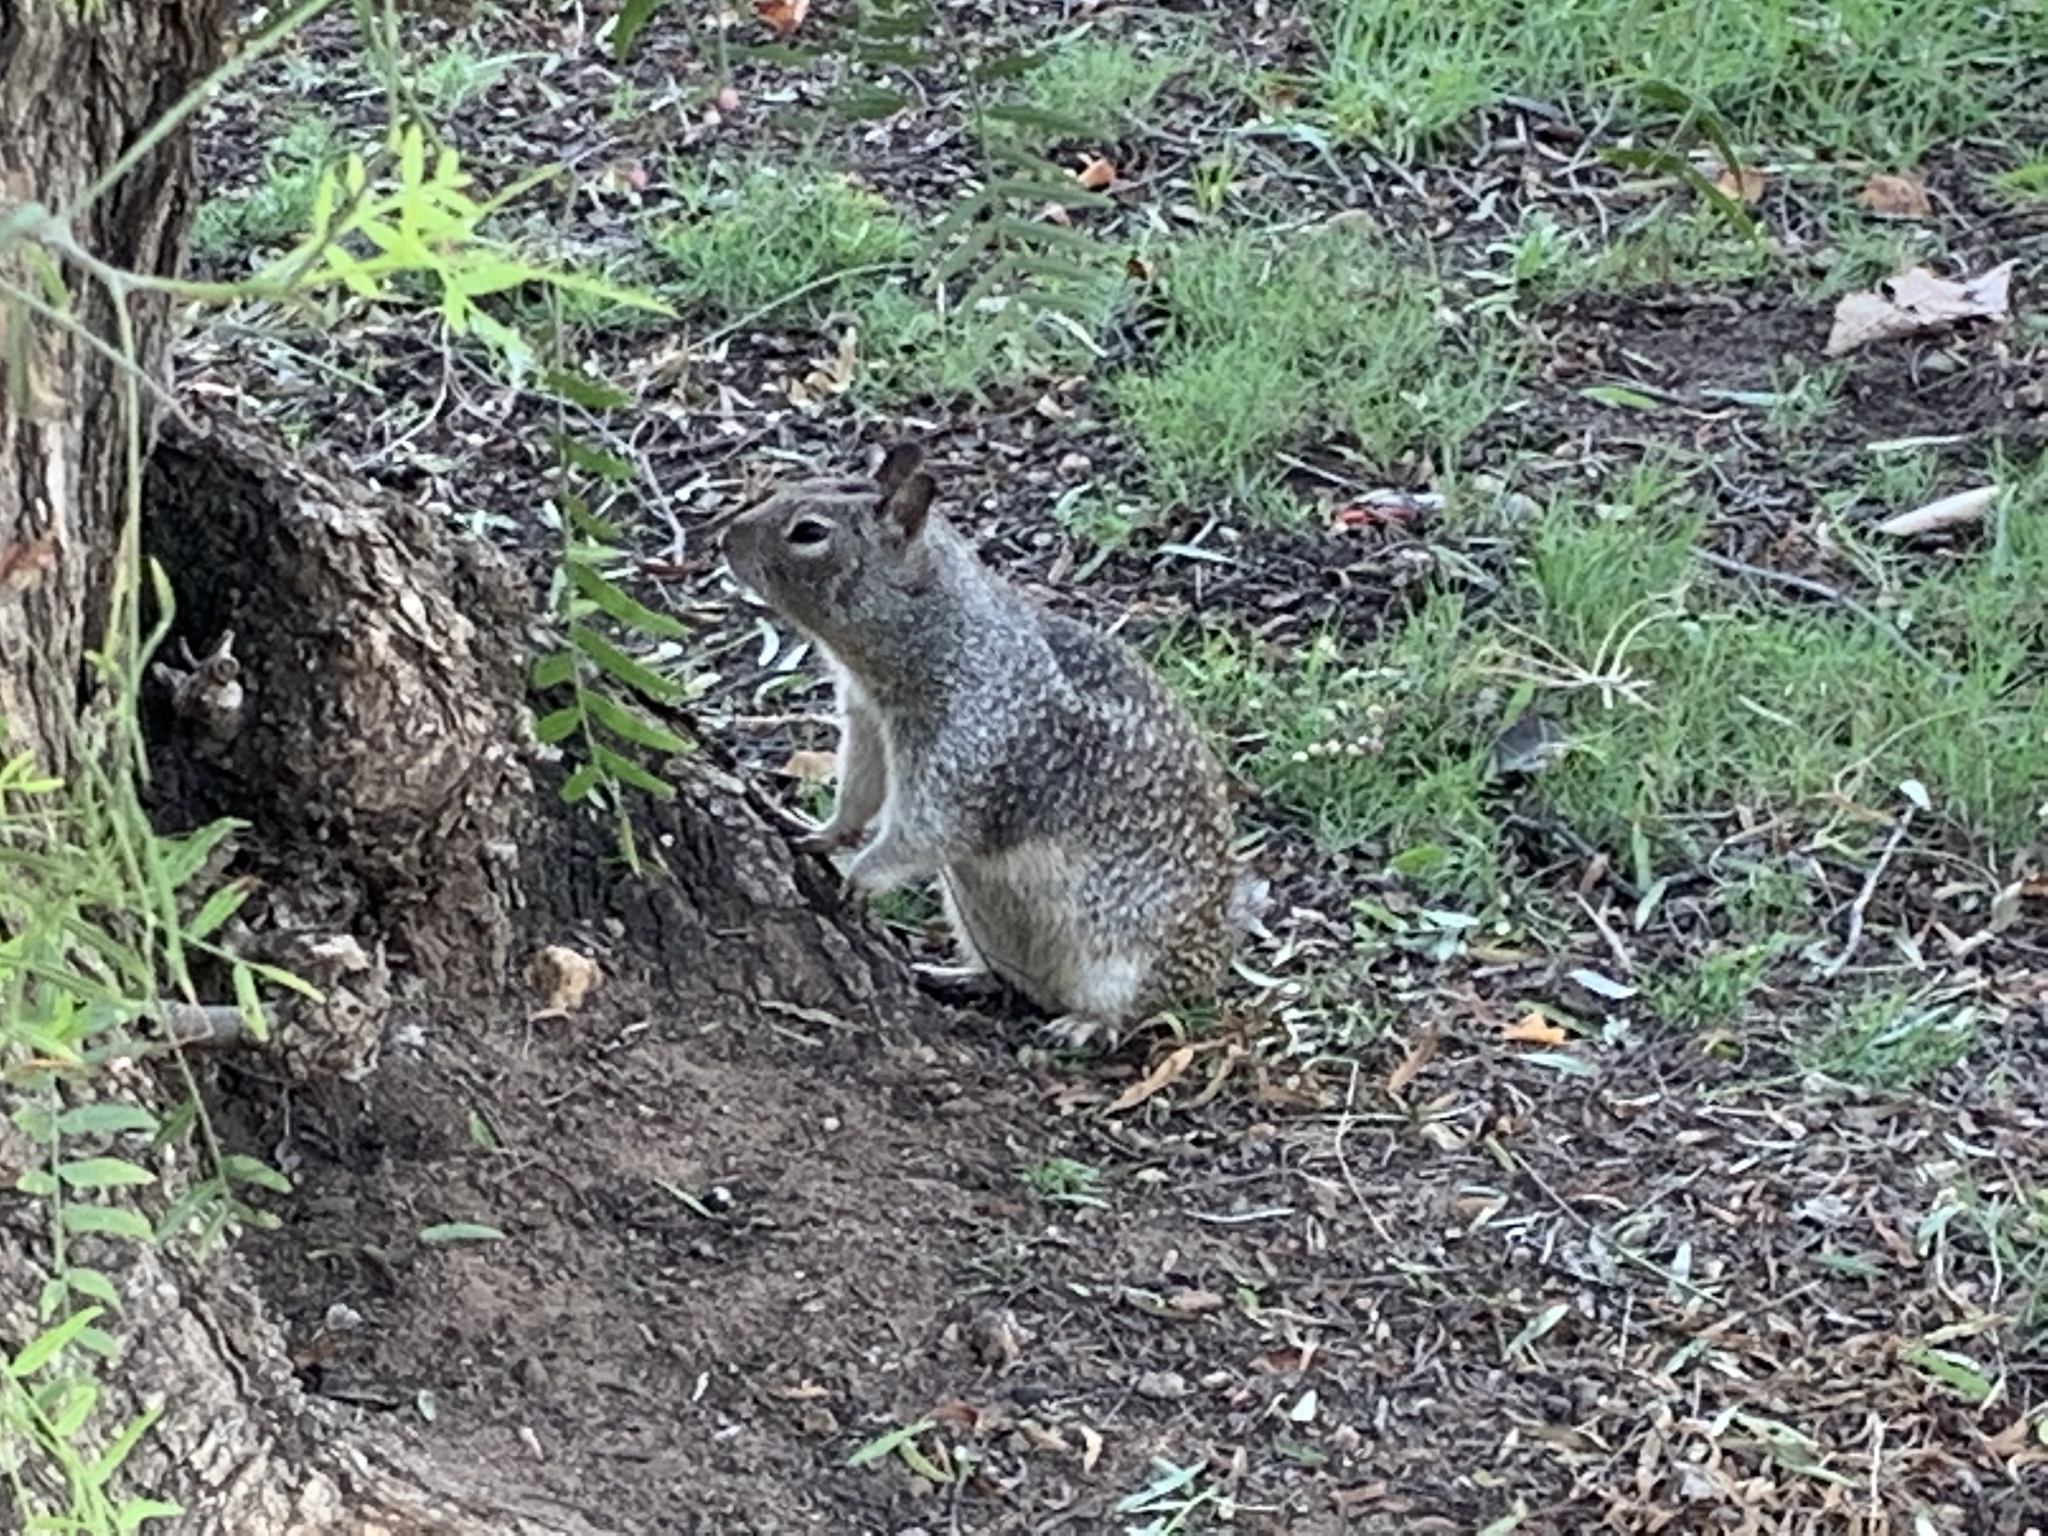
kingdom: Animalia
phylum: Chordata
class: Mammalia
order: Rodentia
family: Sciuridae
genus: Otospermophilus
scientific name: Otospermophilus beecheyi
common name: California ground squirrel
